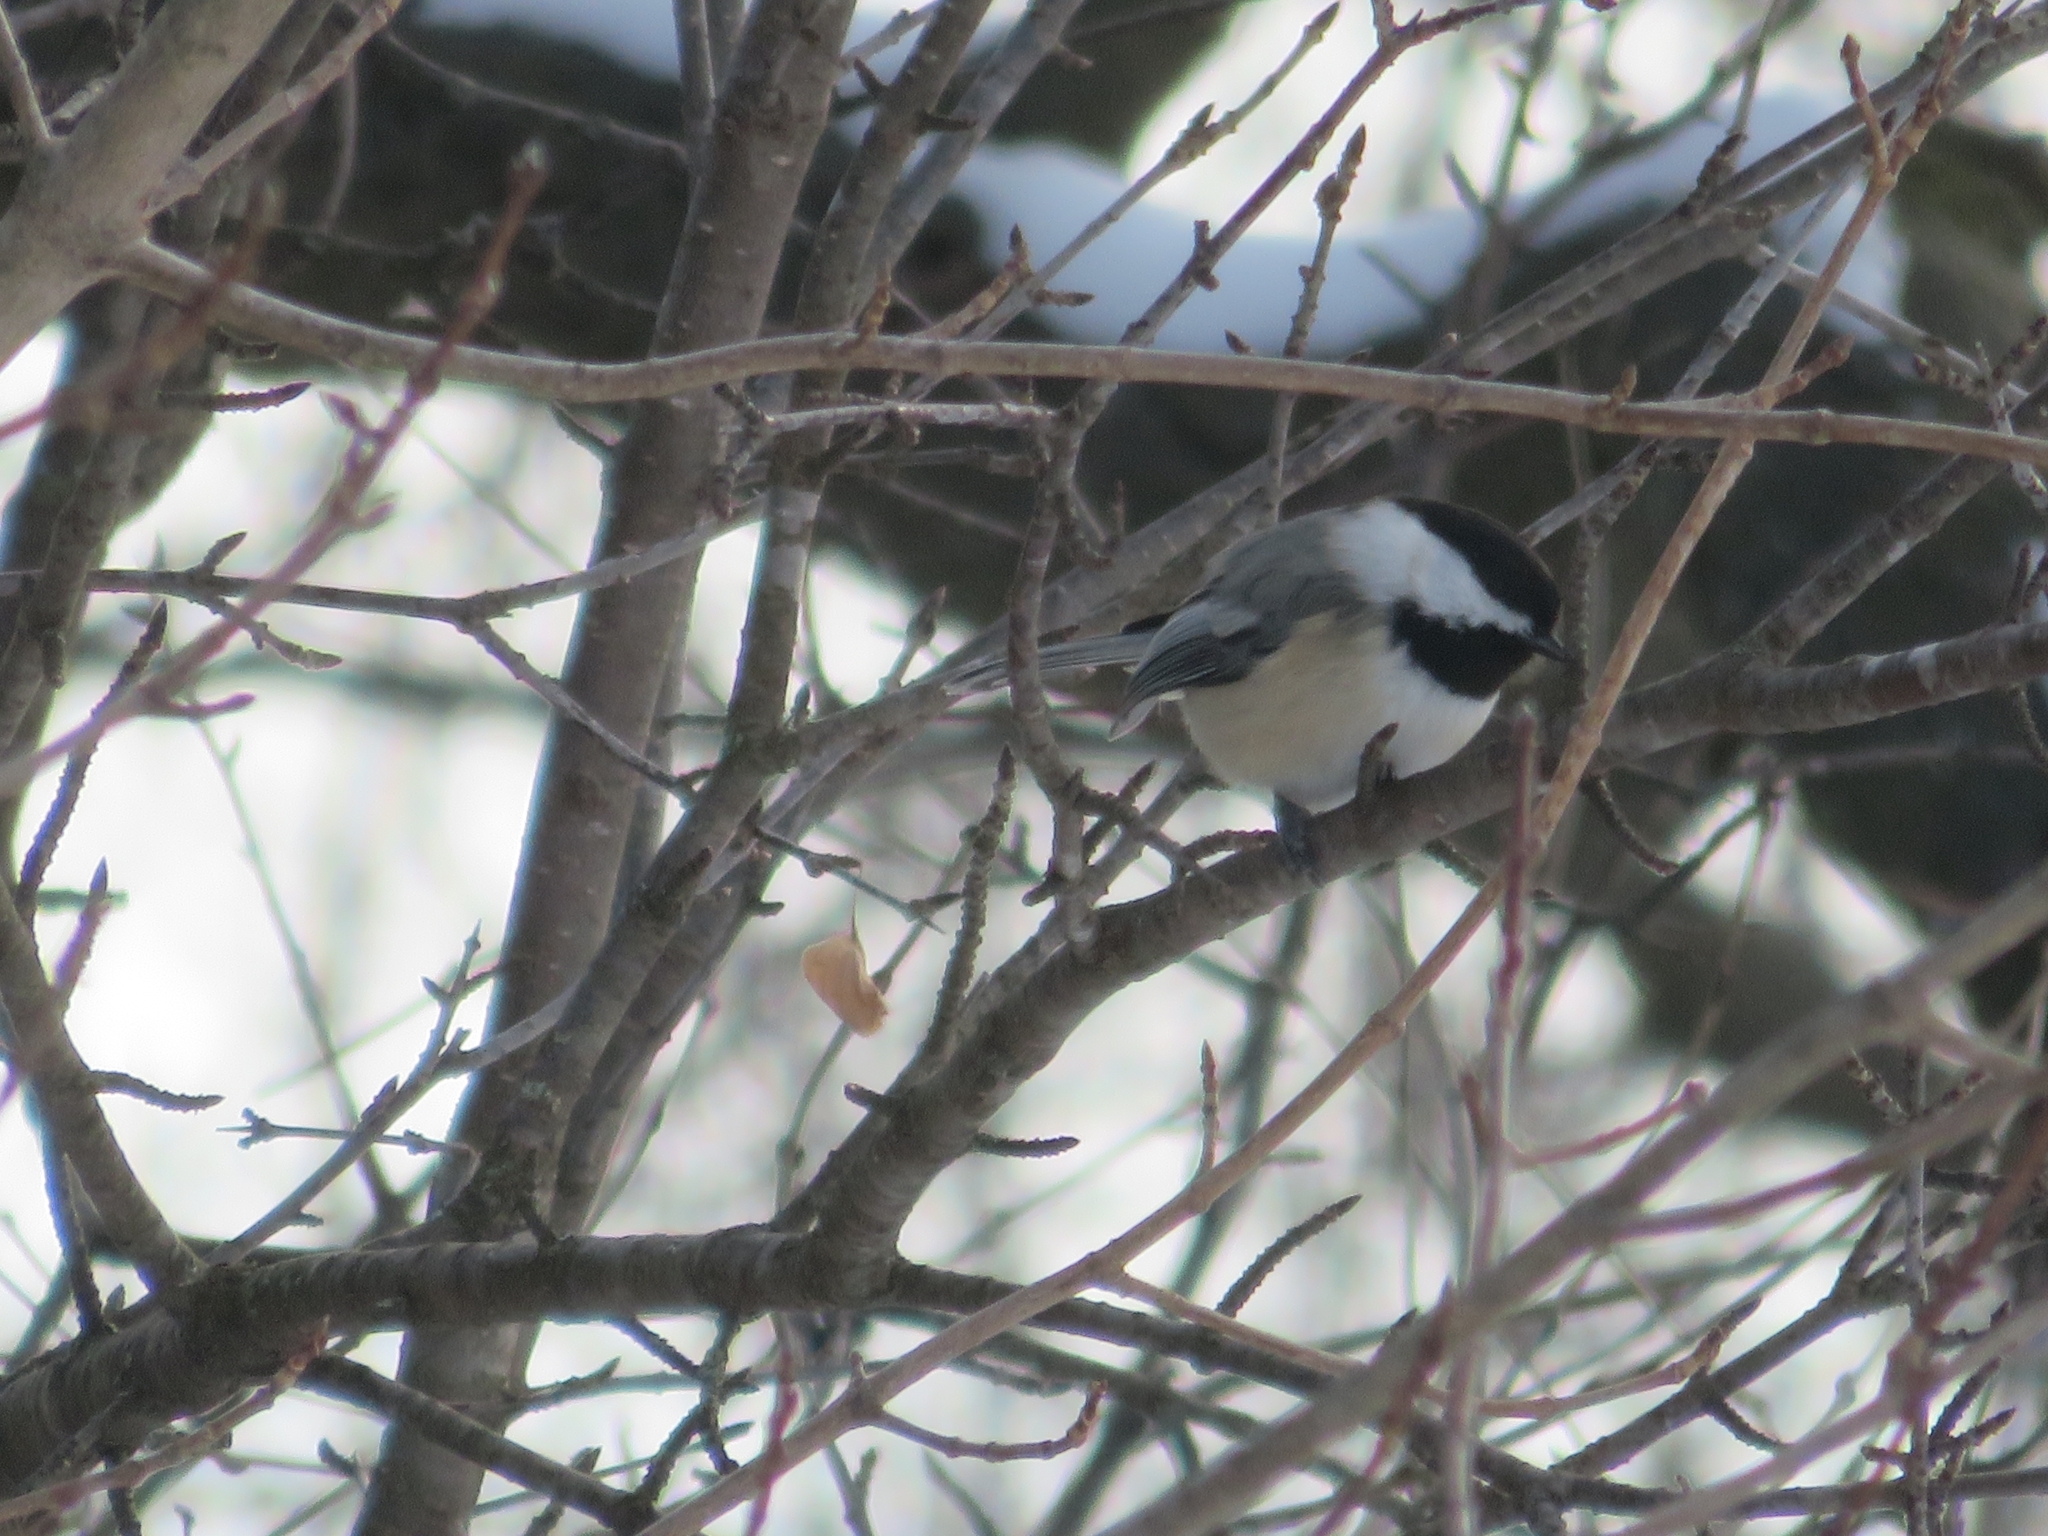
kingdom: Animalia
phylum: Chordata
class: Aves
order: Passeriformes
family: Paridae
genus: Poecile
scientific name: Poecile atricapillus
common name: Black-capped chickadee
